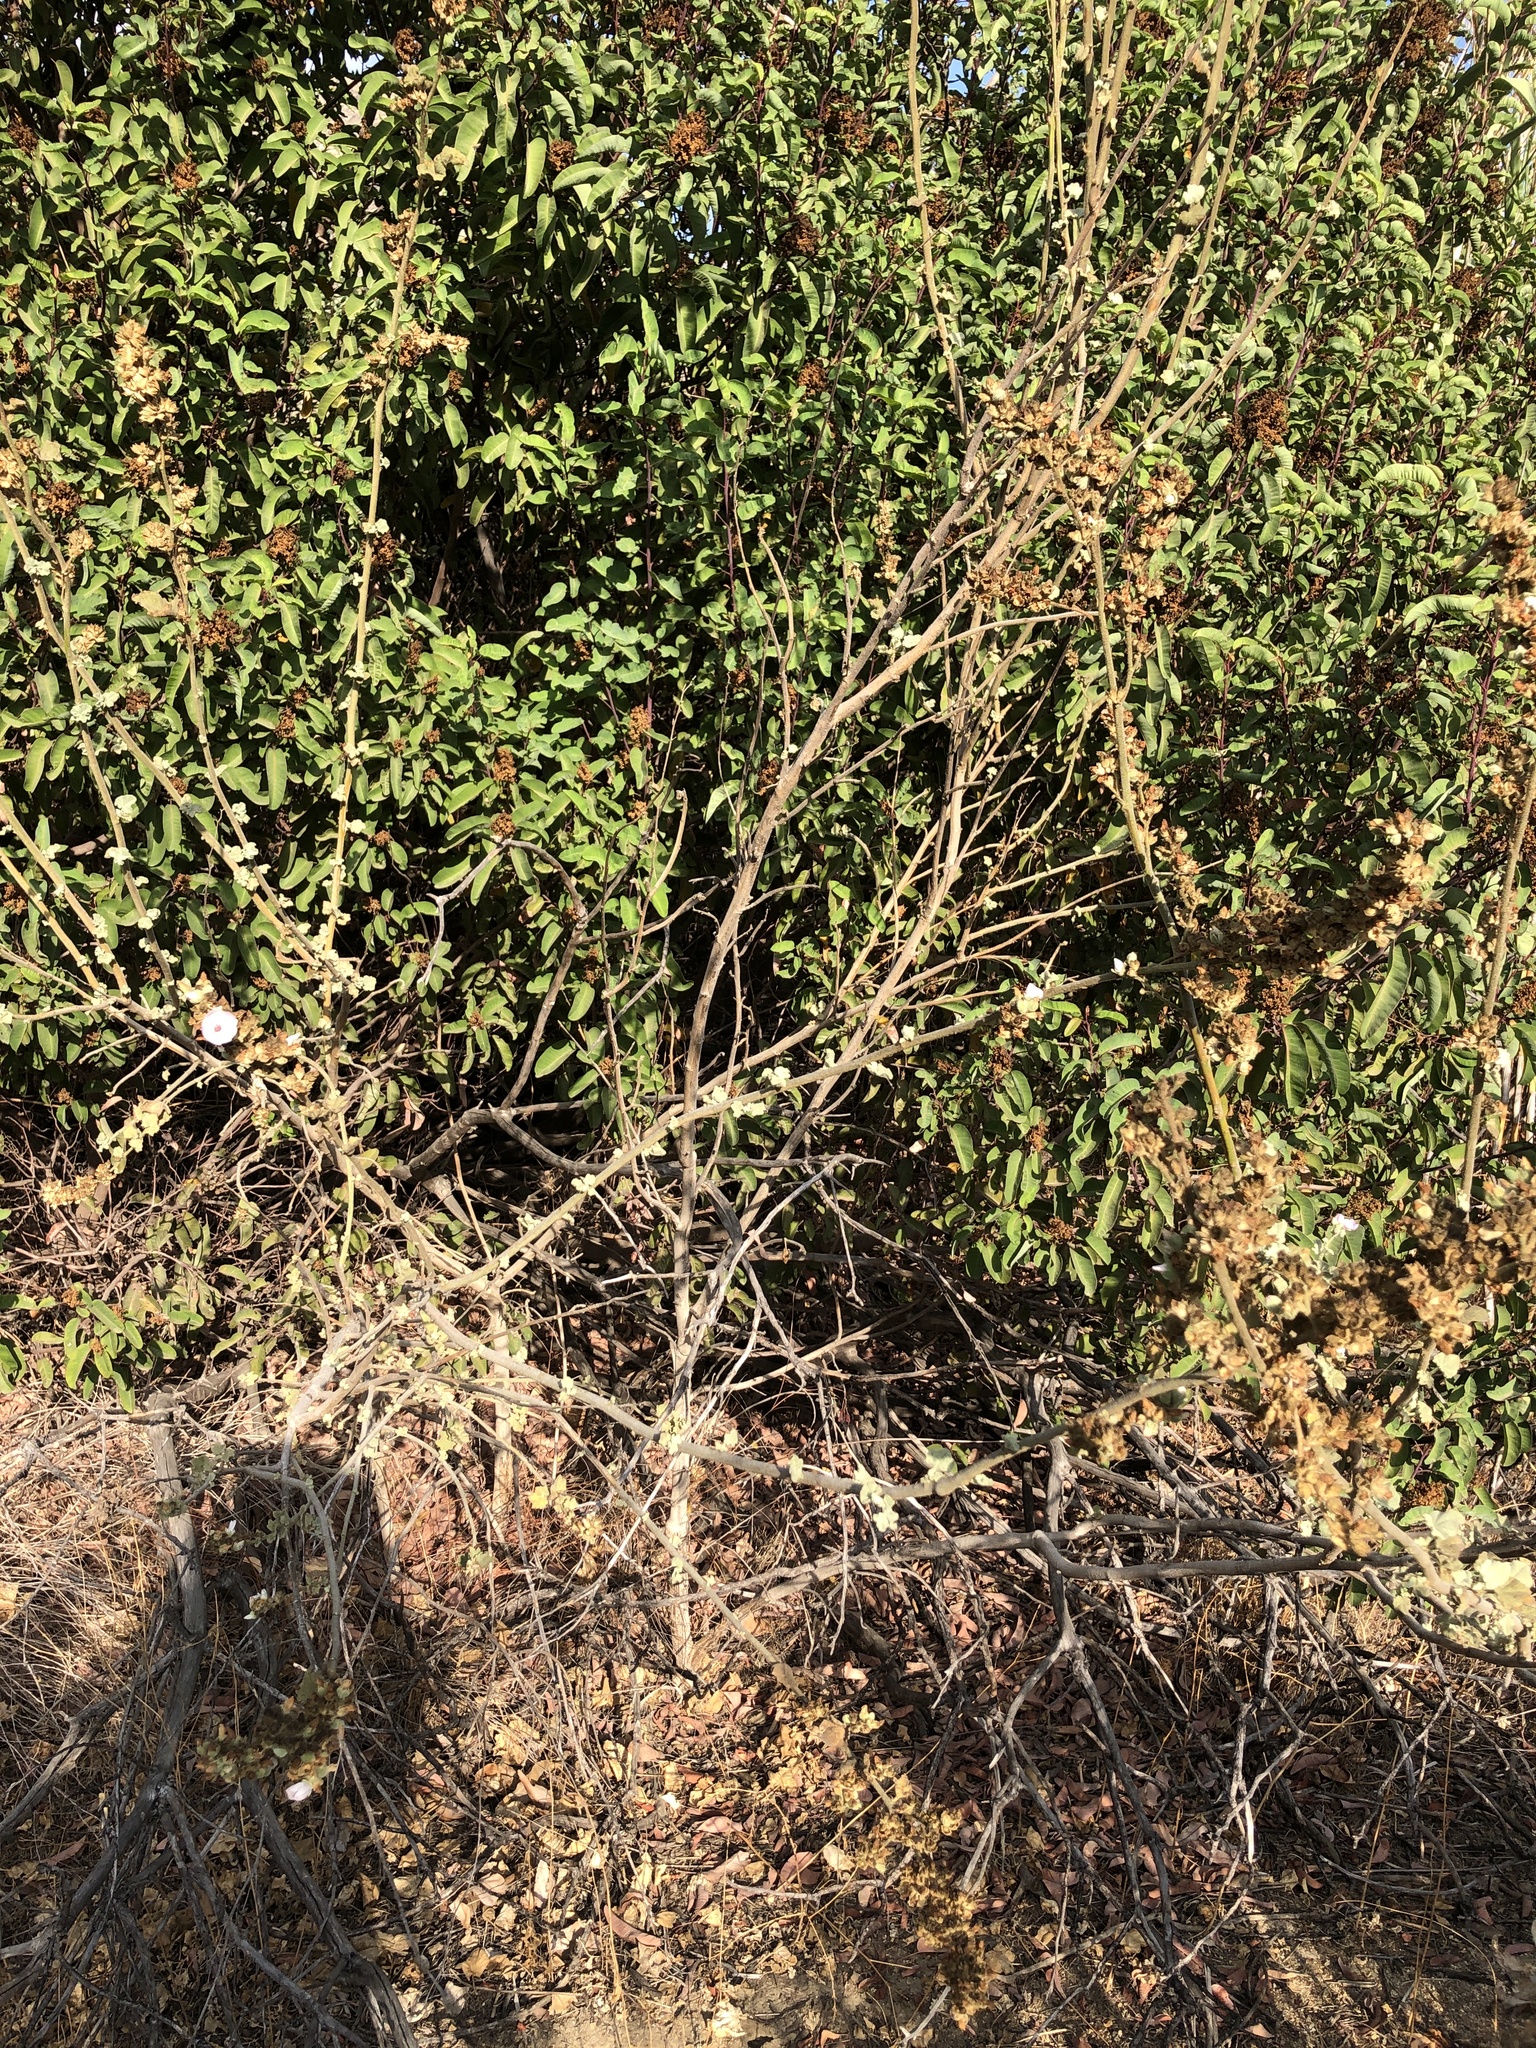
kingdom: Plantae
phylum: Tracheophyta
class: Magnoliopsida
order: Malvales
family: Malvaceae
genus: Malacothamnus
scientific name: Malacothamnus davidsonii
